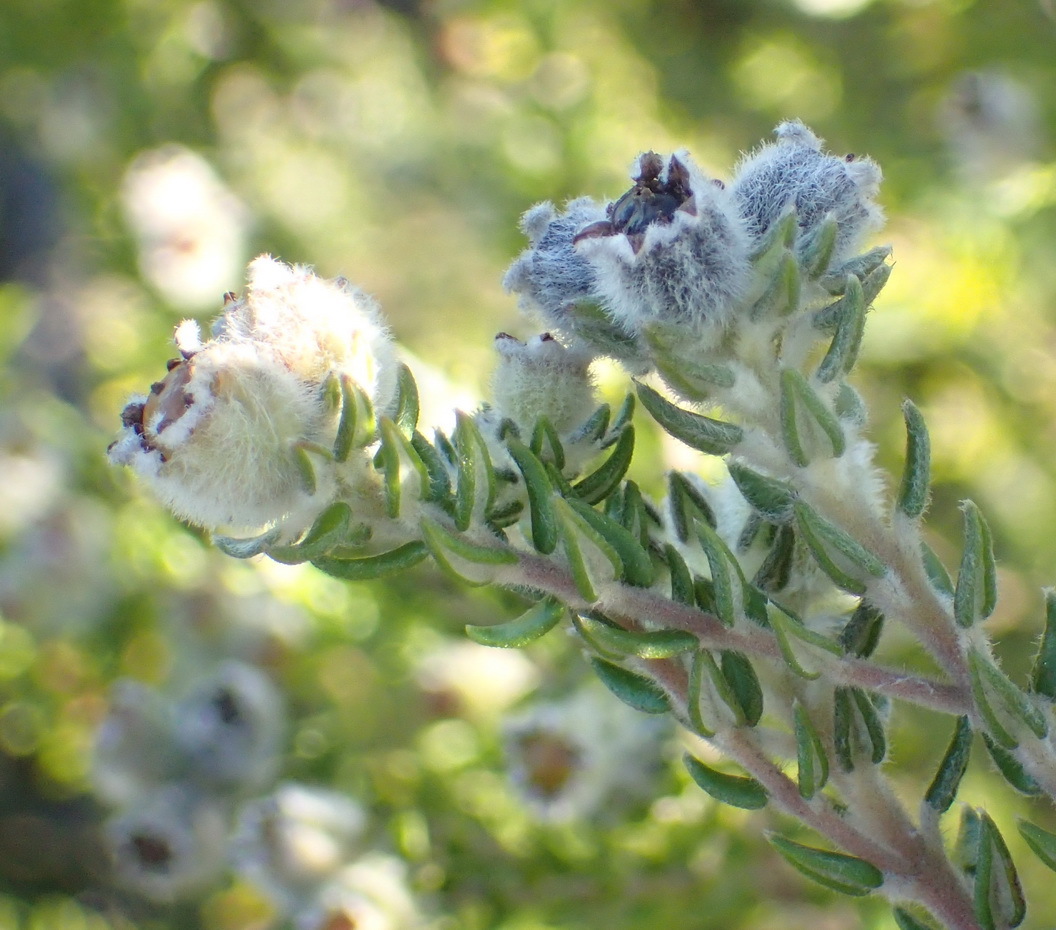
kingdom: Plantae
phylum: Tracheophyta
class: Magnoliopsida
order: Rosales
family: Rhamnaceae
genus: Phylica
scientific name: Phylica purpurea
